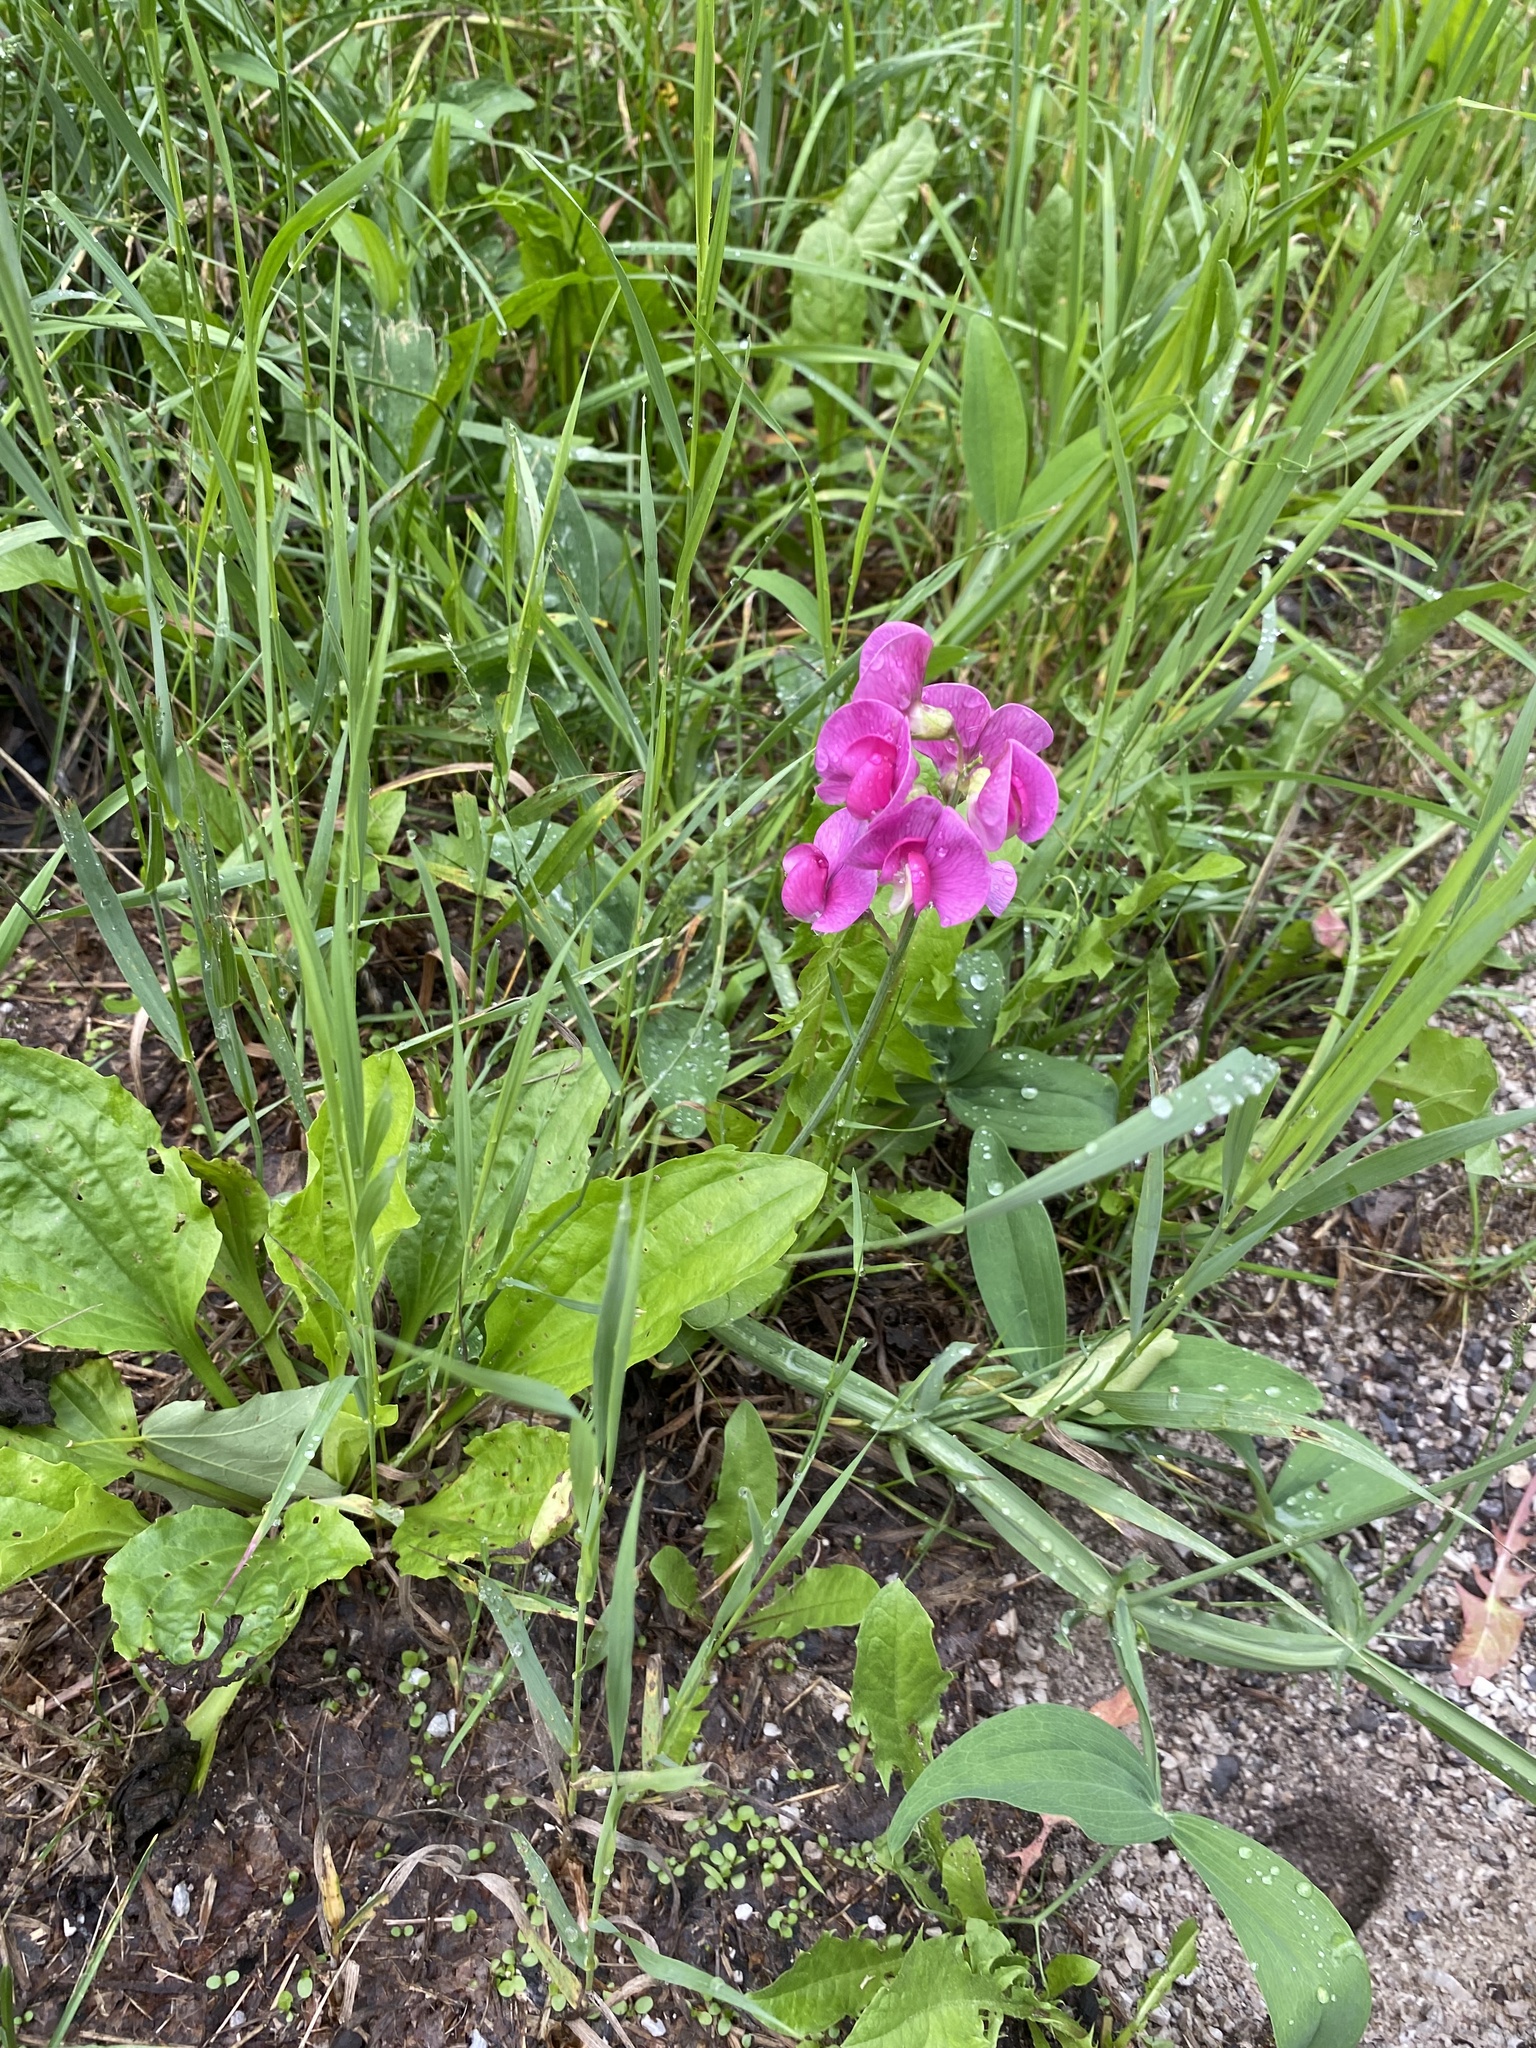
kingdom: Plantae
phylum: Tracheophyta
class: Magnoliopsida
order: Fabales
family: Fabaceae
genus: Lathyrus
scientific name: Lathyrus latifolius
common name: Perennial pea
